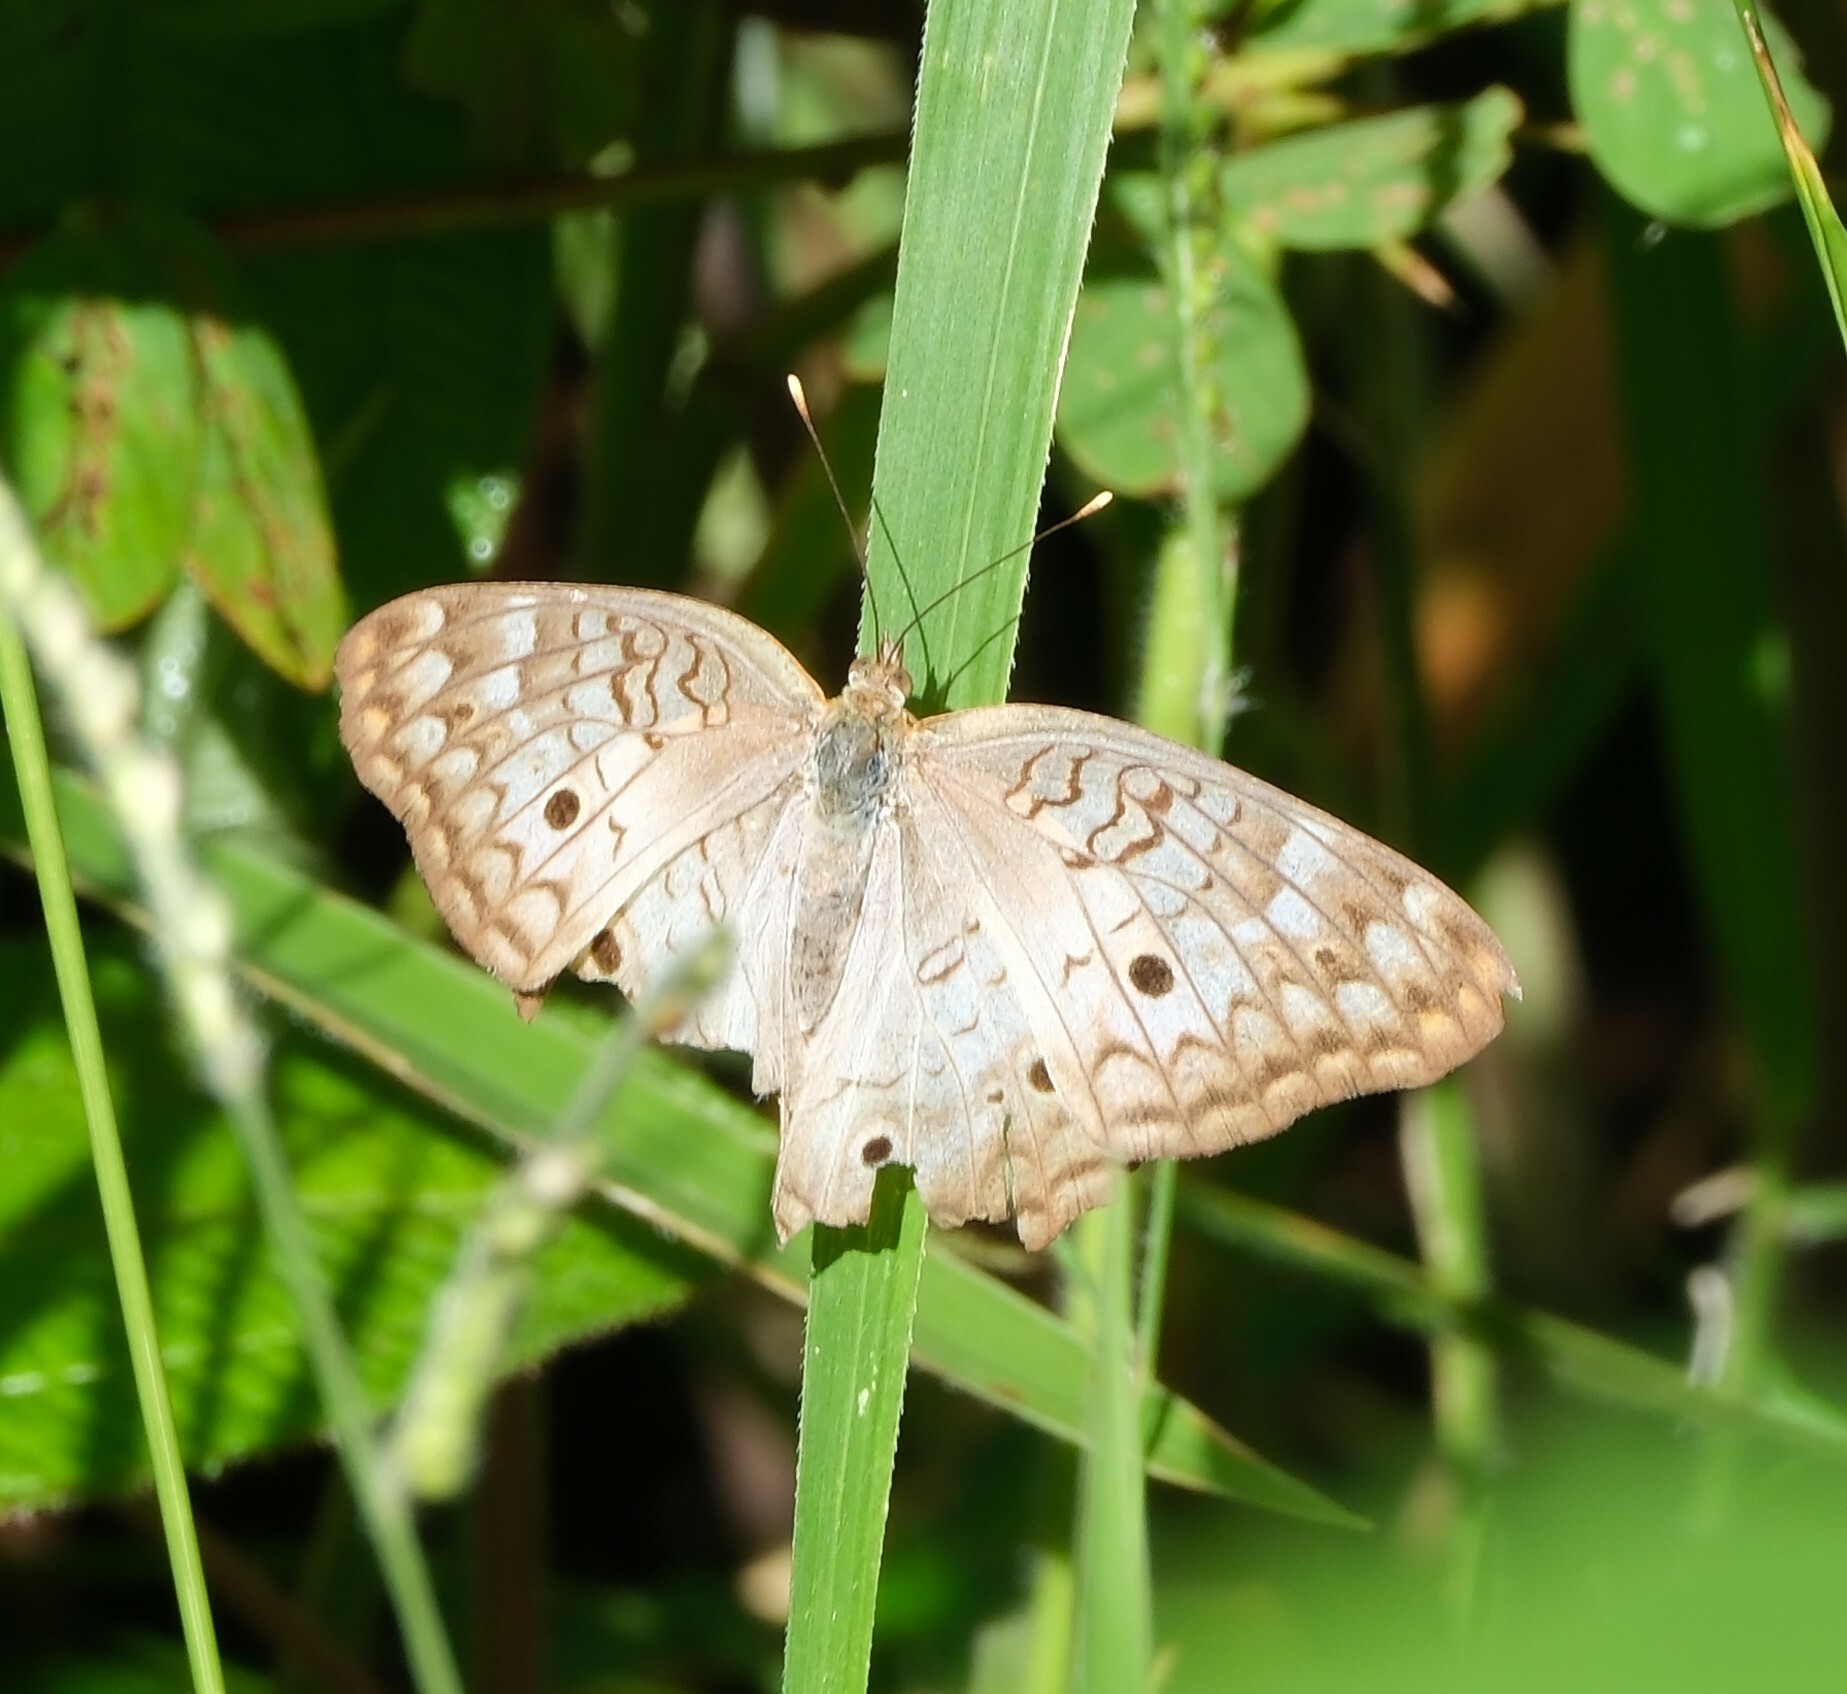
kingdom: Animalia
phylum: Arthropoda
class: Insecta
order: Lepidoptera
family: Nymphalidae
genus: Anartia
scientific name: Anartia jatrophae
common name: White peacock
